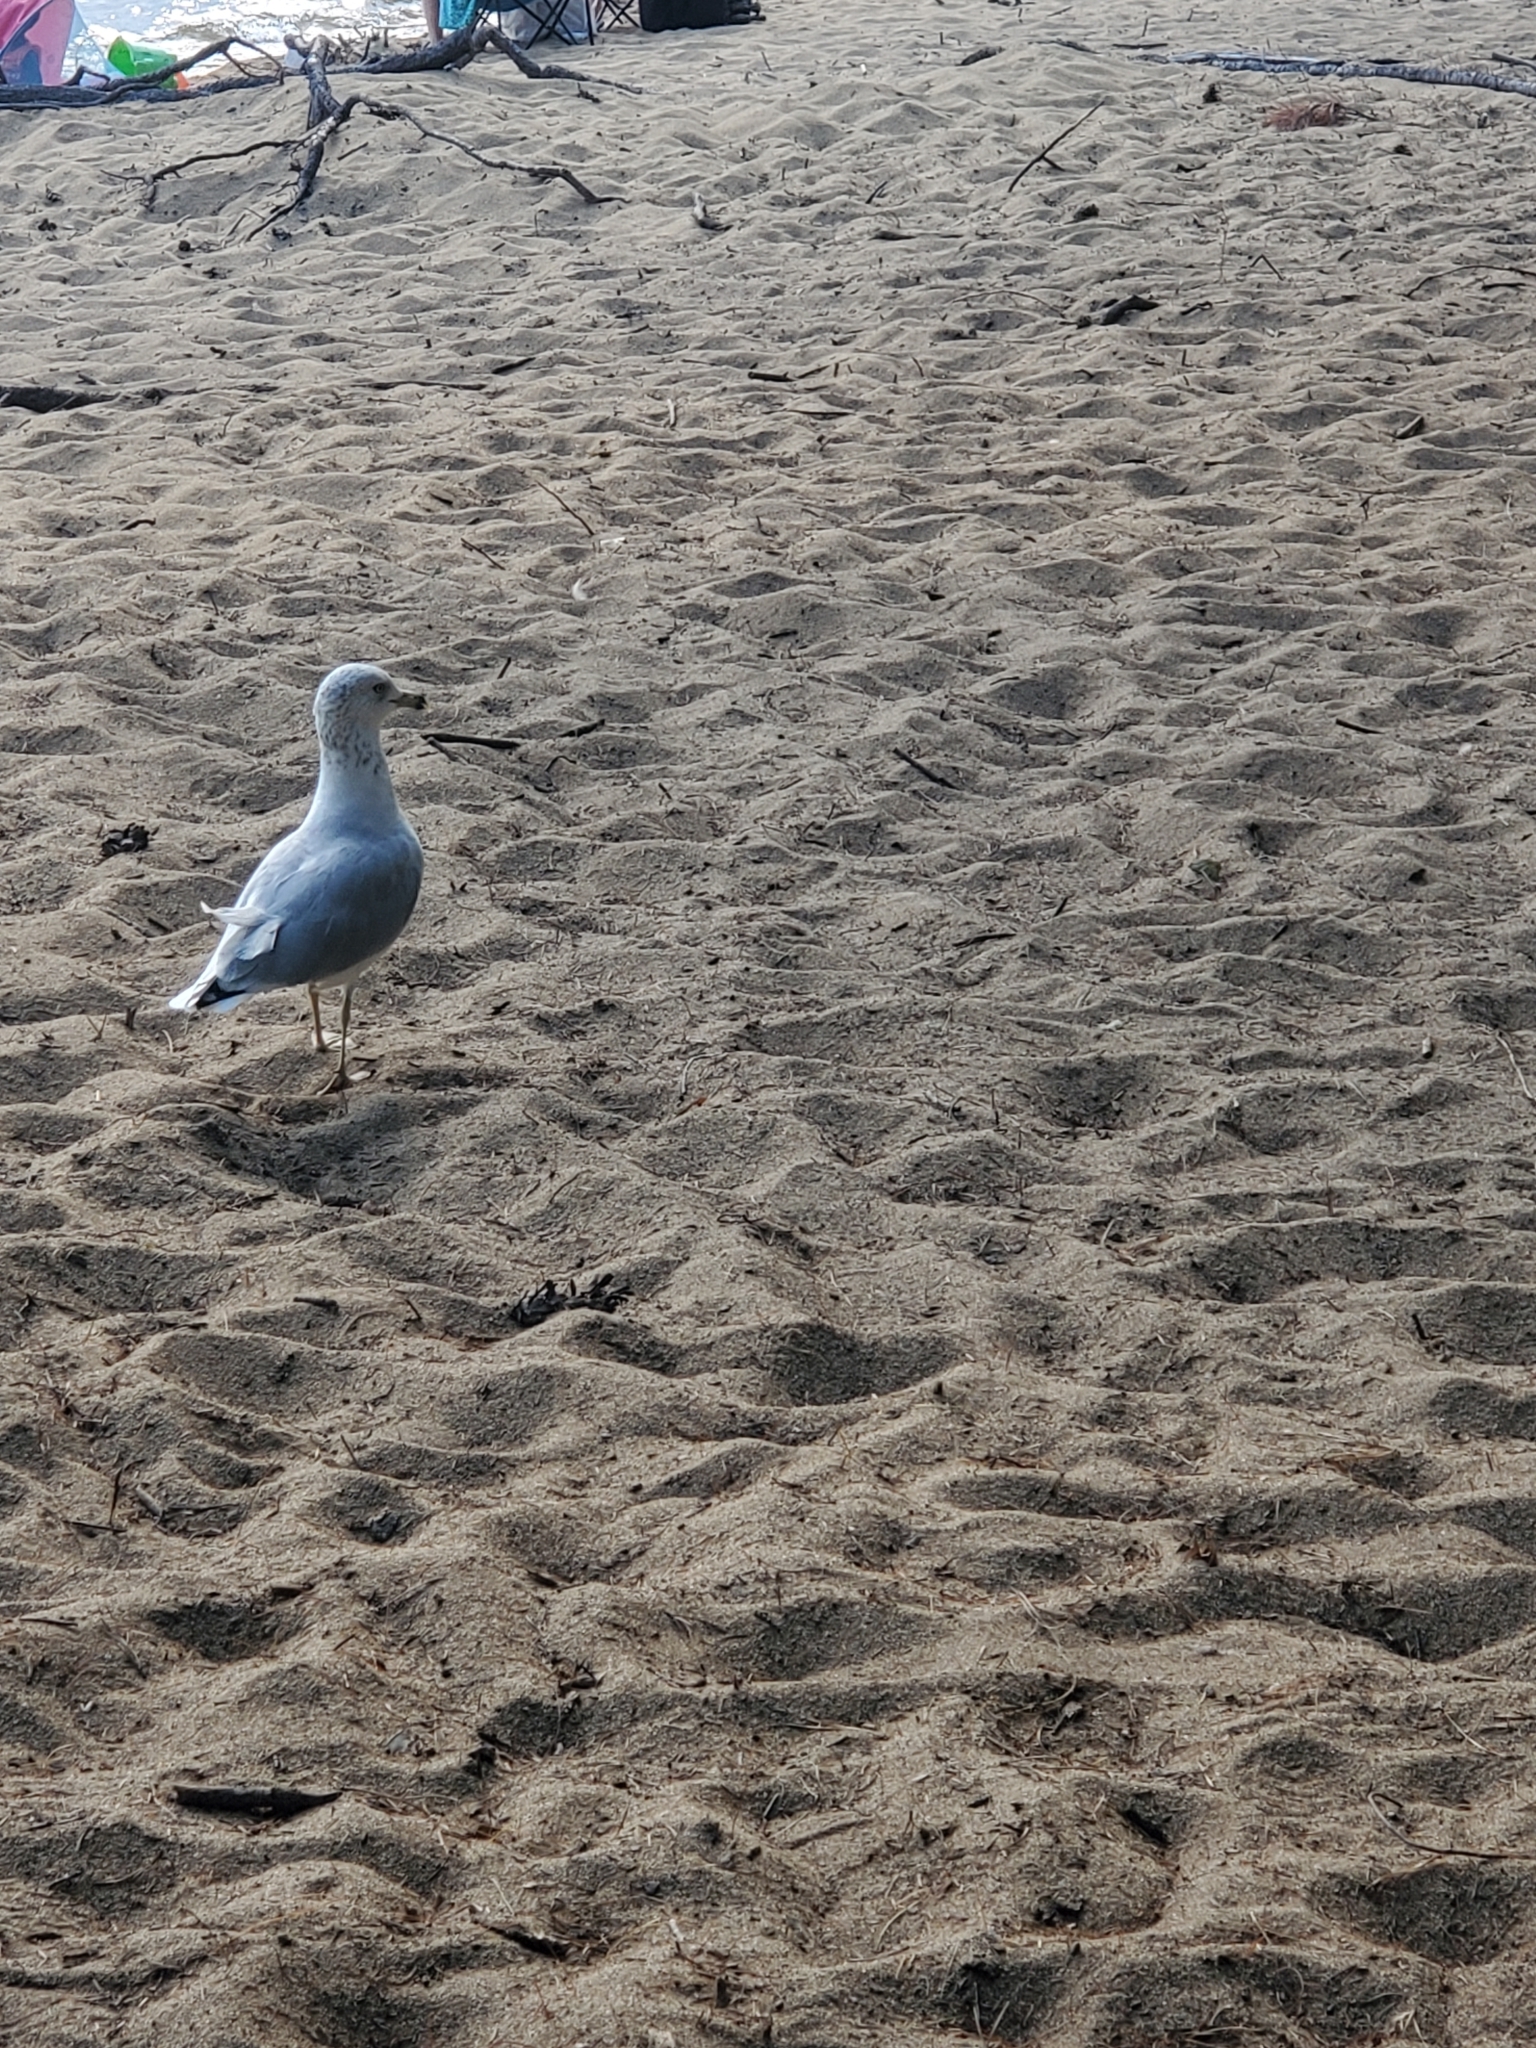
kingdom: Animalia
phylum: Chordata
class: Aves
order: Charadriiformes
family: Laridae
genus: Larus
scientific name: Larus delawarensis
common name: Ring-billed gull
